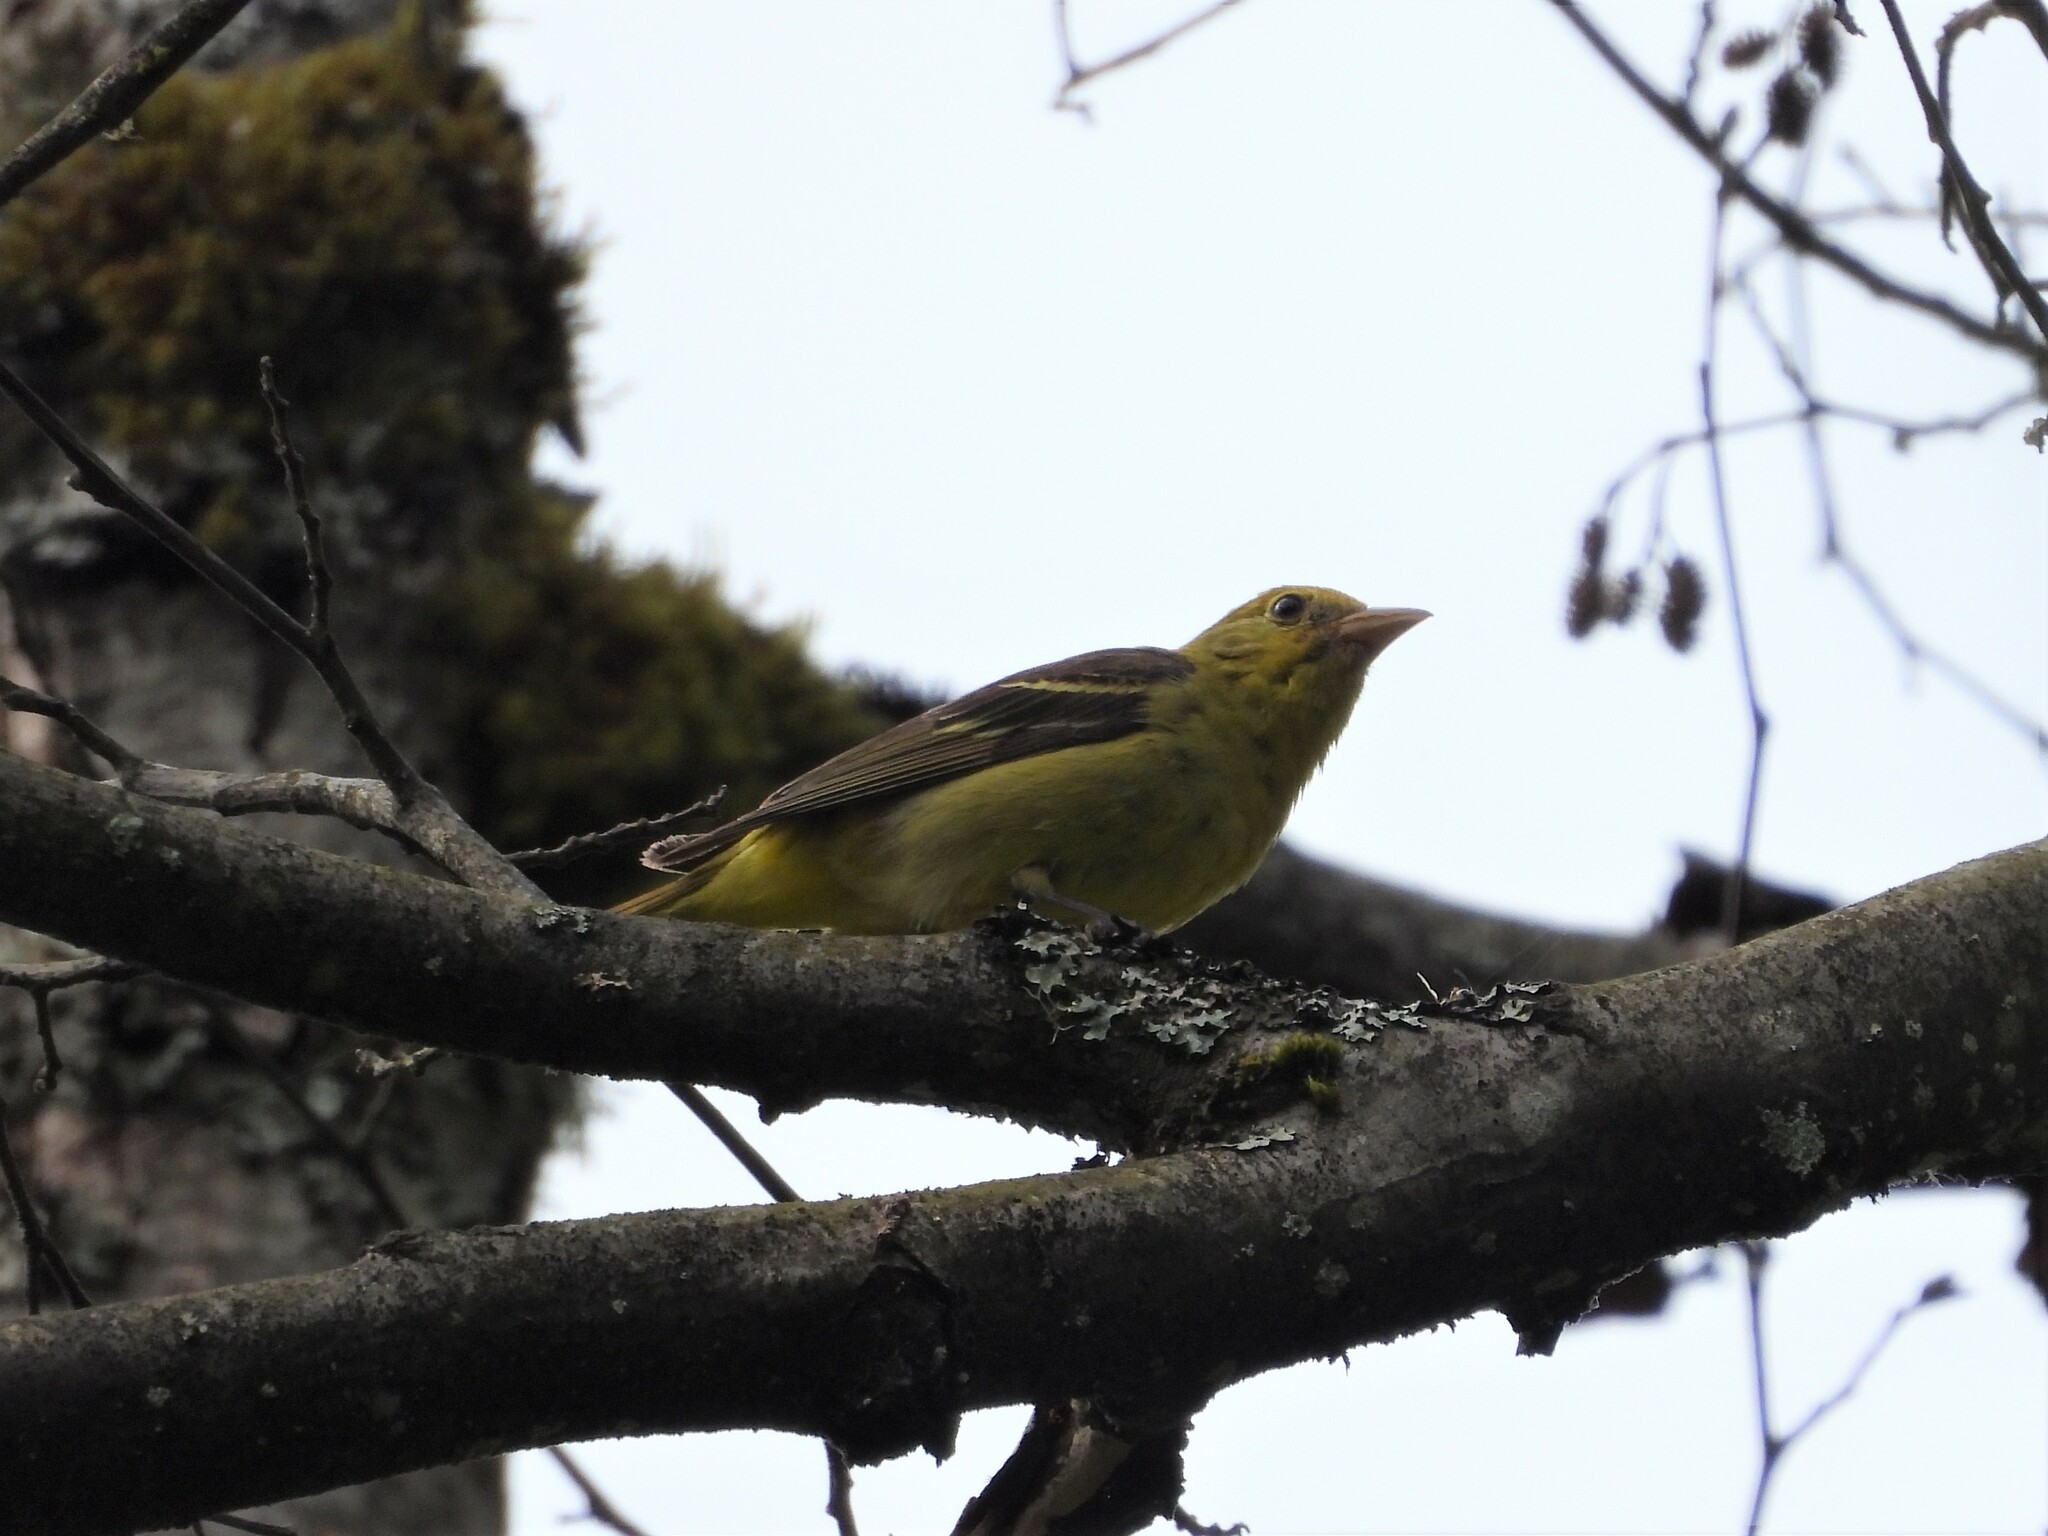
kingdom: Animalia
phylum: Chordata
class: Aves
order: Passeriformes
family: Cardinalidae
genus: Piranga
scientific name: Piranga ludoviciana
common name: Western tanager
